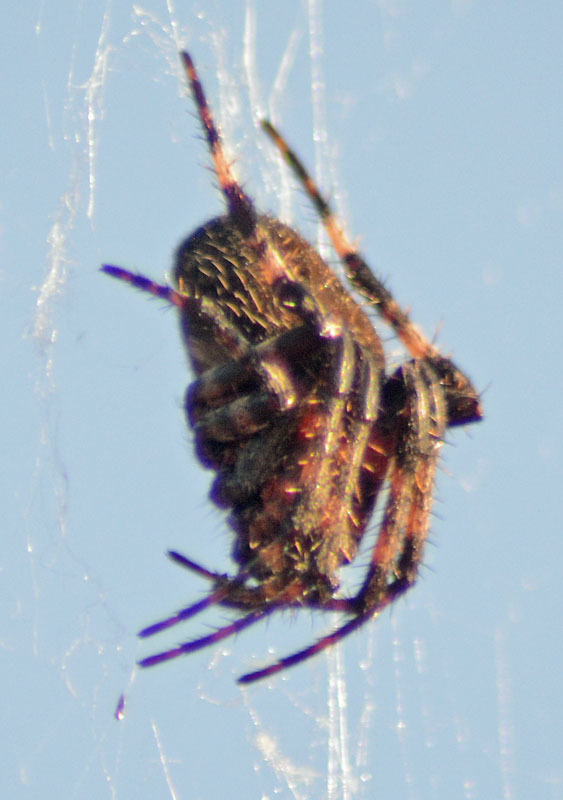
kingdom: Animalia
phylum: Arthropoda
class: Arachnida
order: Araneae
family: Araneidae
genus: Neoscona
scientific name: Neoscona crucifera
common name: Spotted orbweaver
